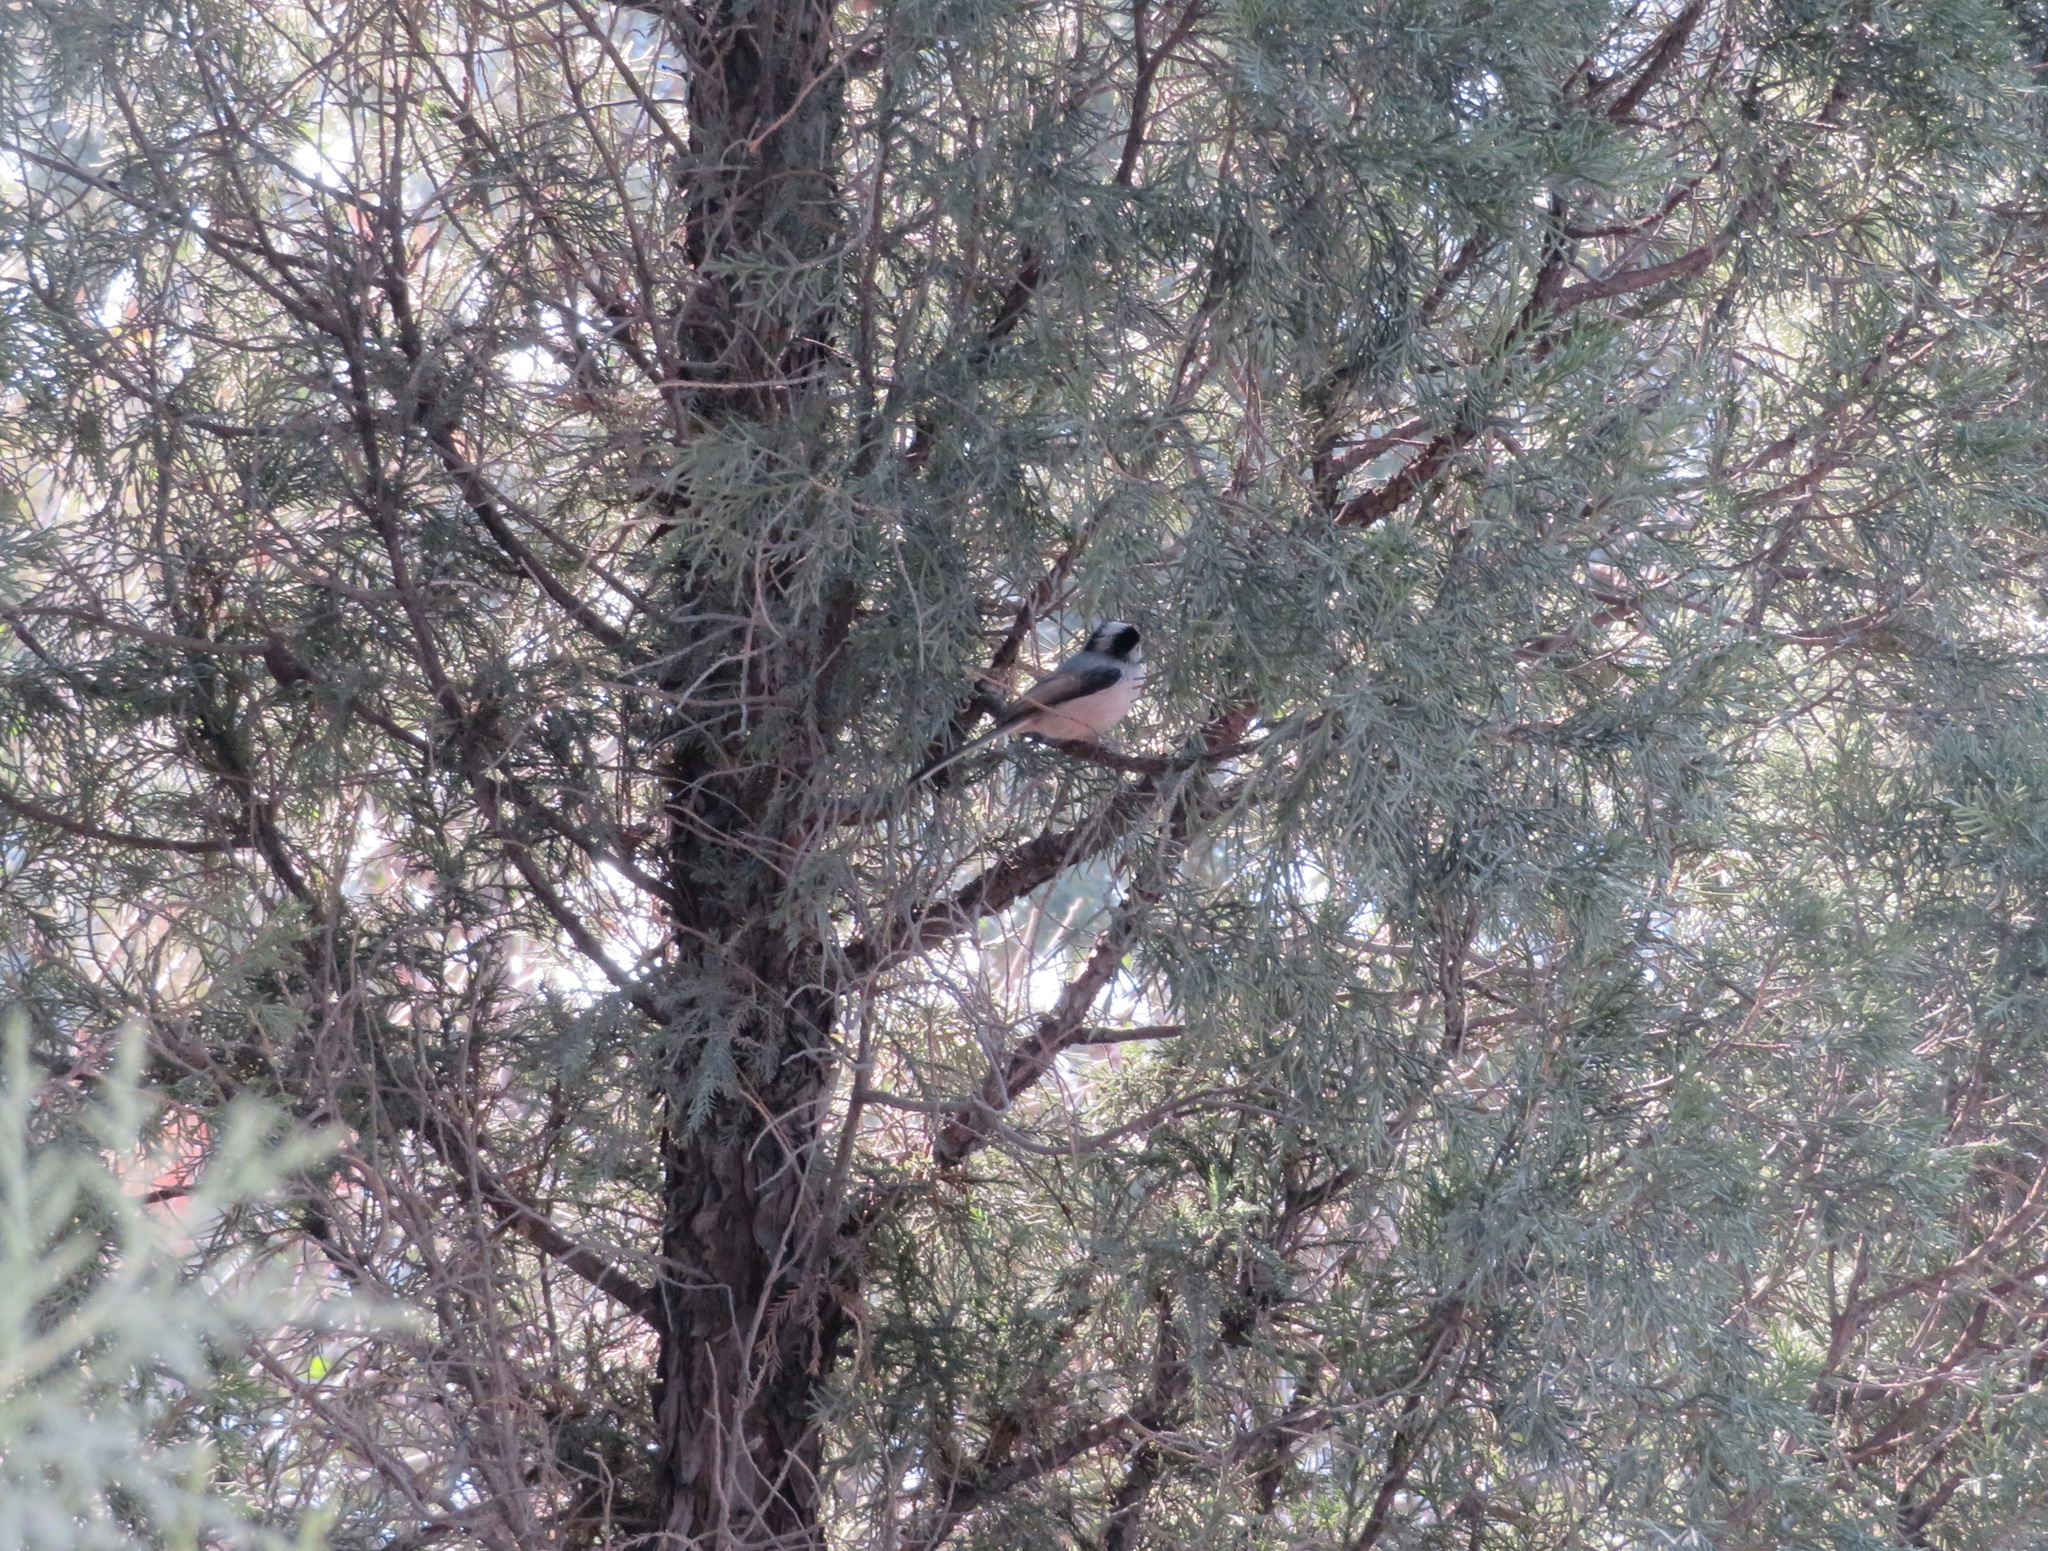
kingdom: Animalia
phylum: Chordata
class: Aves
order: Passeriformes
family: Aegithalidae
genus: Aegithalos
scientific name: Aegithalos glaucogularis
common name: Silver-throated bushtit
